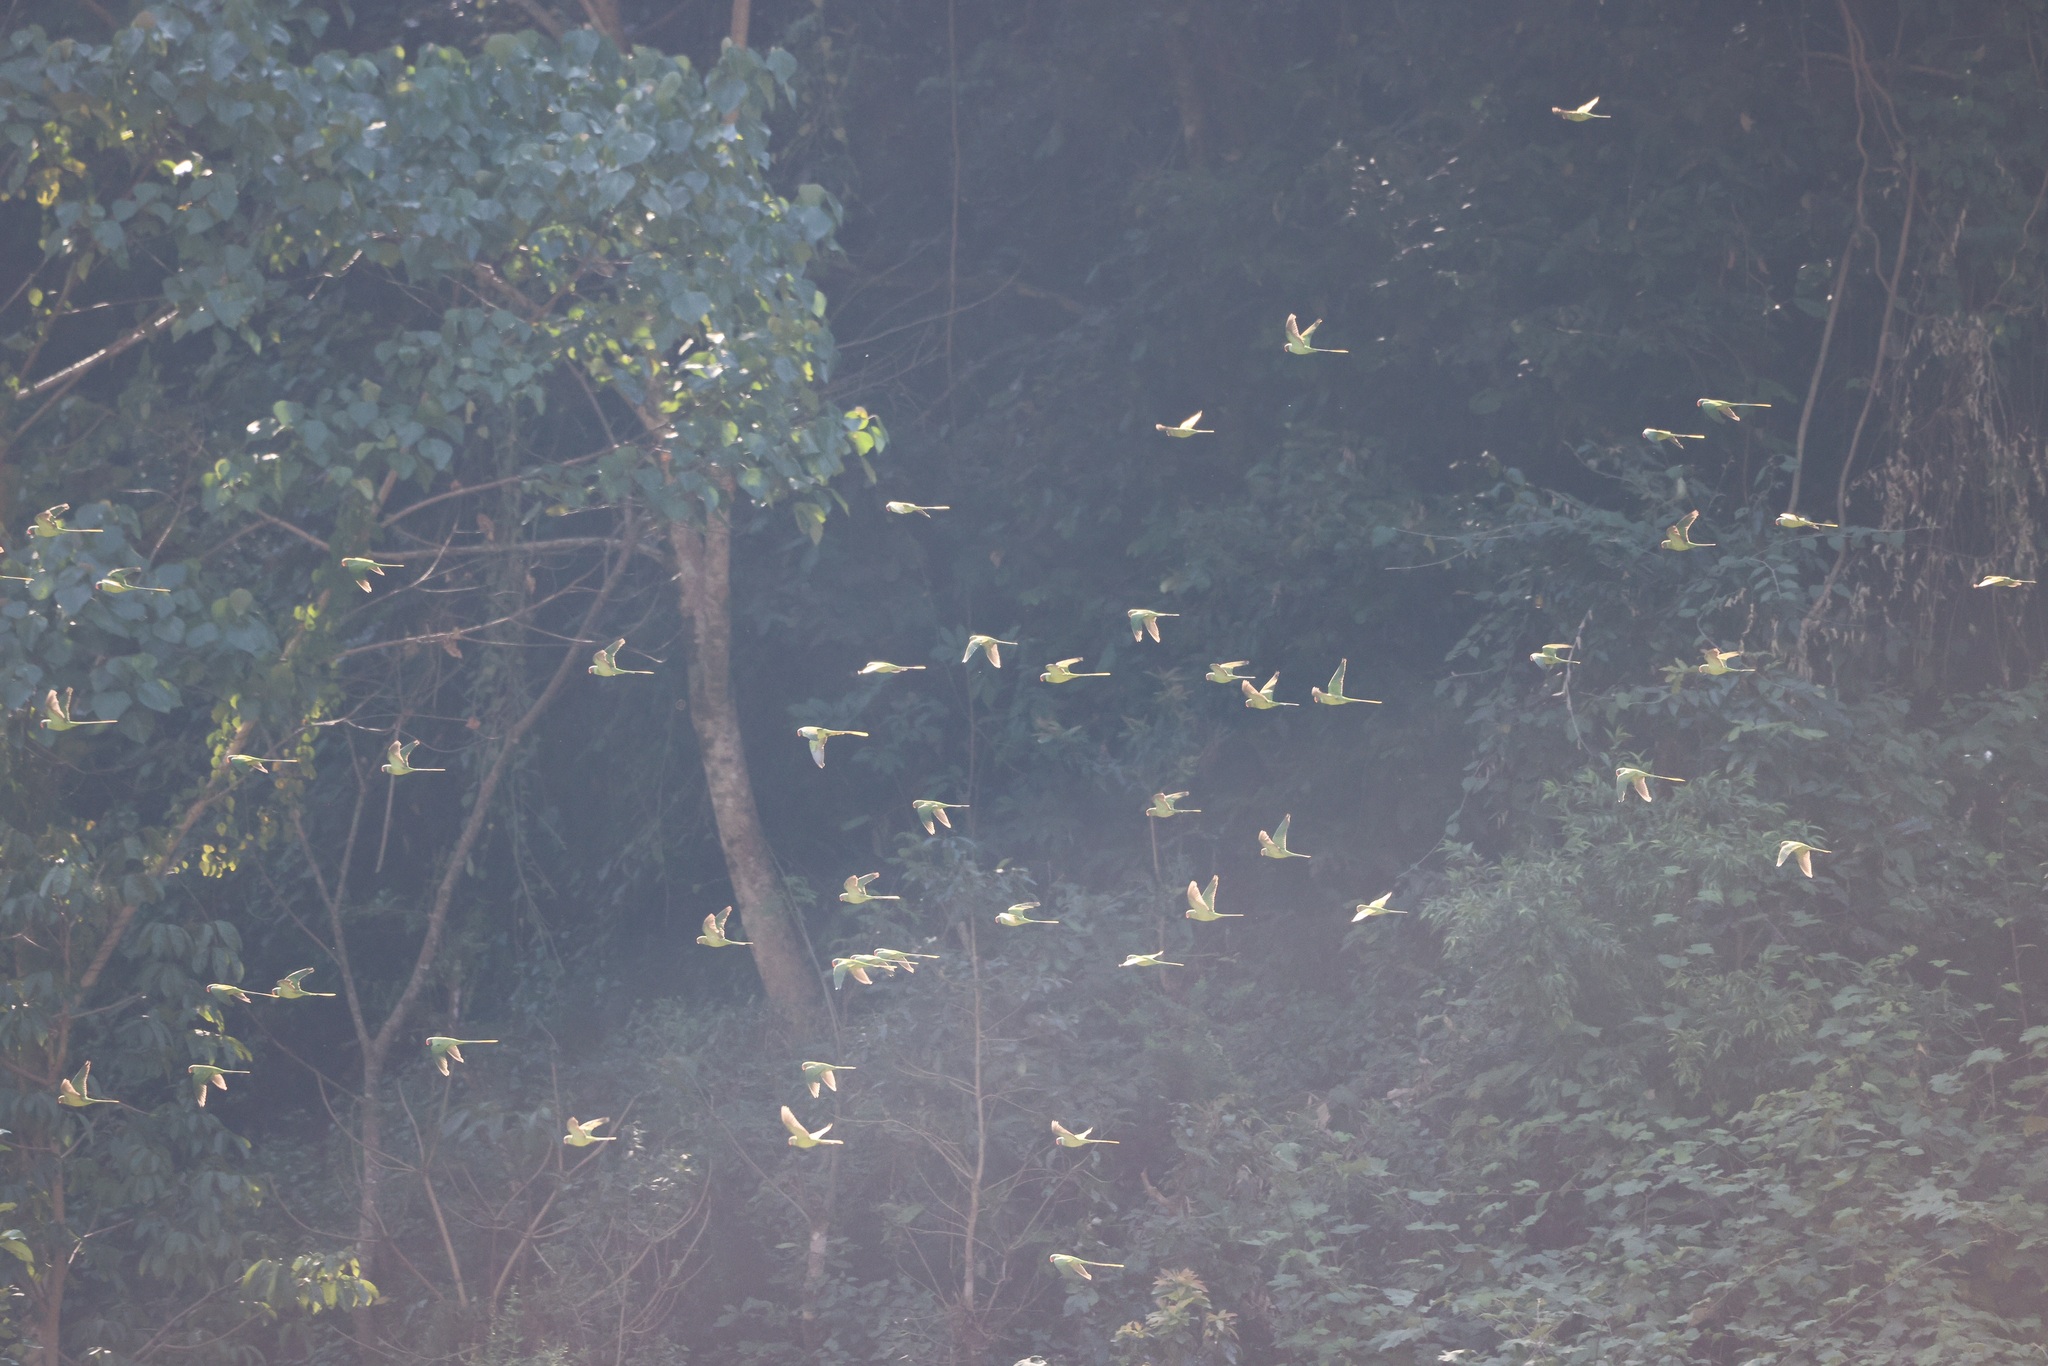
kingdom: Animalia
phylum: Chordata
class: Aves
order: Psittaciformes
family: Psittacidae
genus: Psittacula
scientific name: Psittacula himalayana
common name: Slaty-headed parakeet
